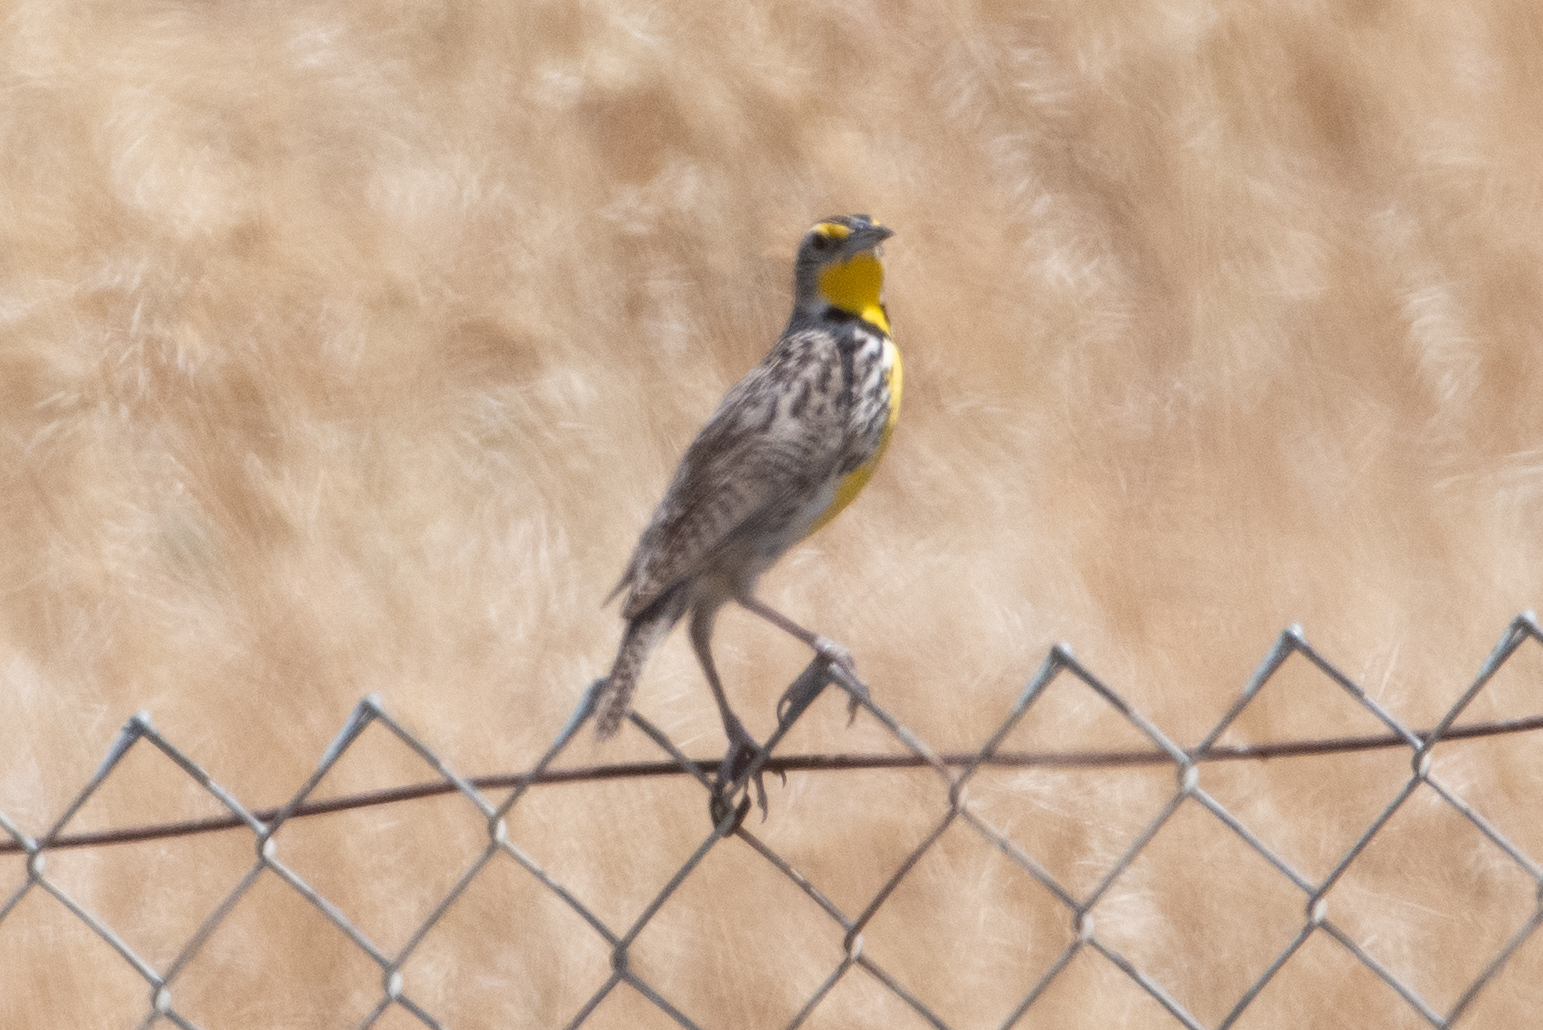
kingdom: Animalia
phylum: Chordata
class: Aves
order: Passeriformes
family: Icteridae
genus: Sturnella
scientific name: Sturnella neglecta
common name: Western meadowlark
